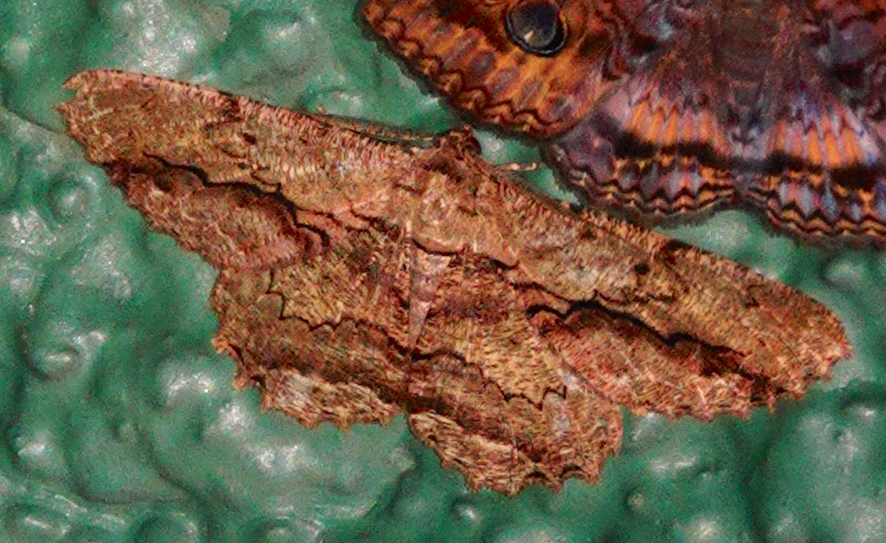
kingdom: Animalia
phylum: Arthropoda
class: Insecta
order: Lepidoptera
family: Geometridae
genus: Chorodna
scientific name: Chorodna strixaria
